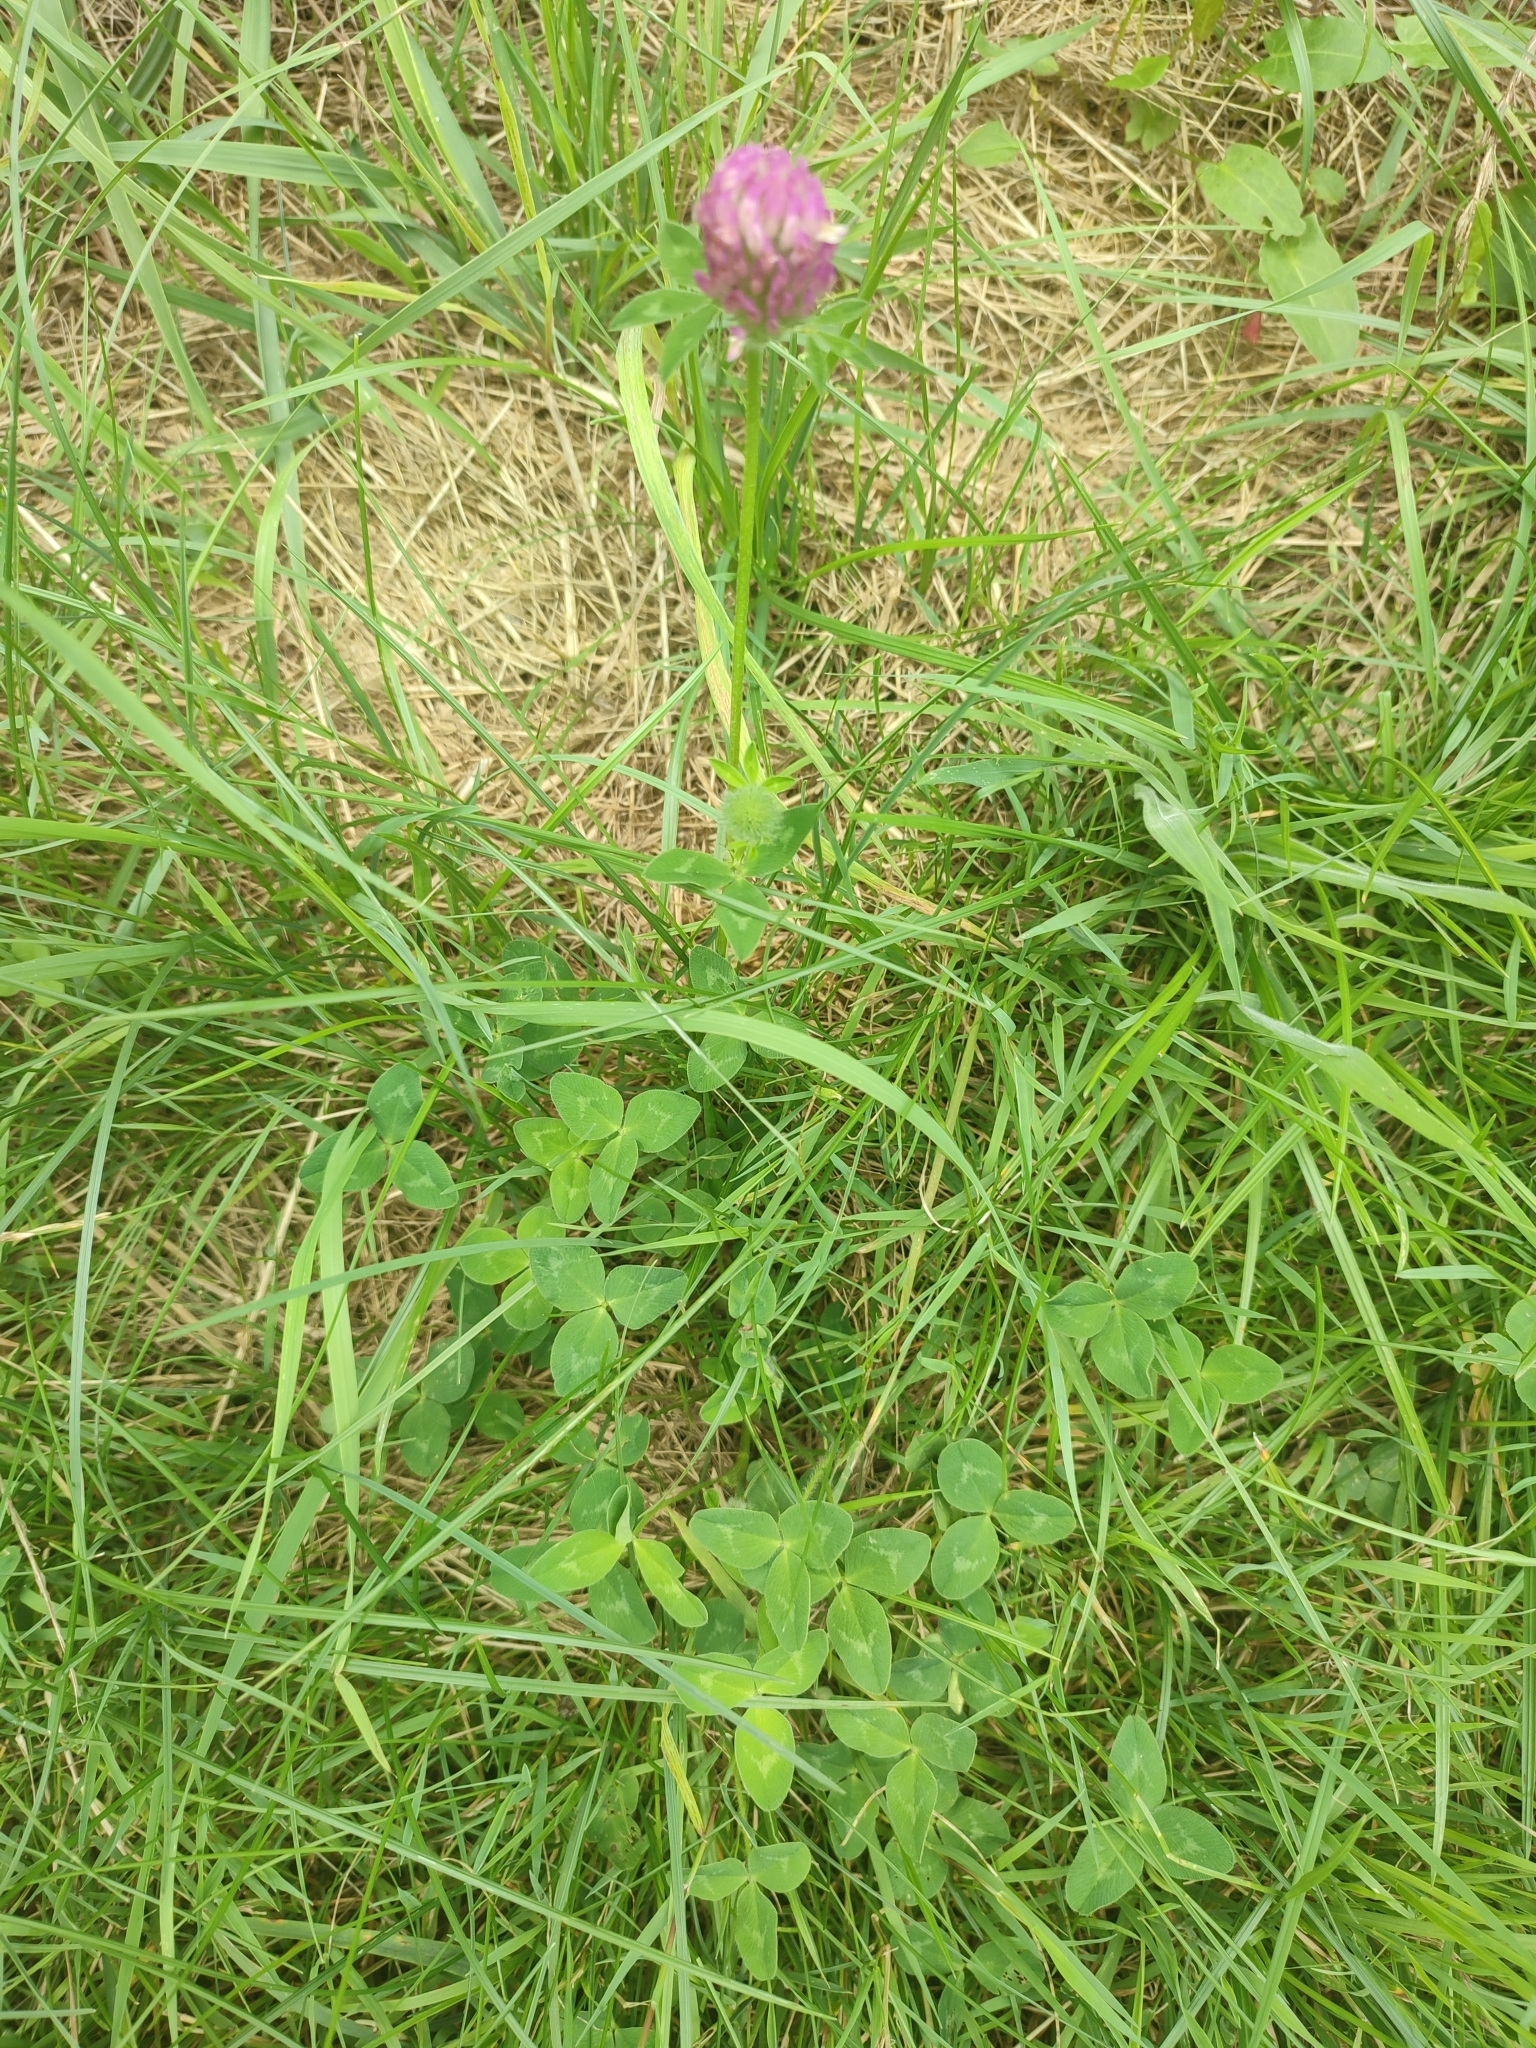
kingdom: Plantae
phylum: Tracheophyta
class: Magnoliopsida
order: Fabales
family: Fabaceae
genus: Trifolium
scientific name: Trifolium pratense
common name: Red clover
